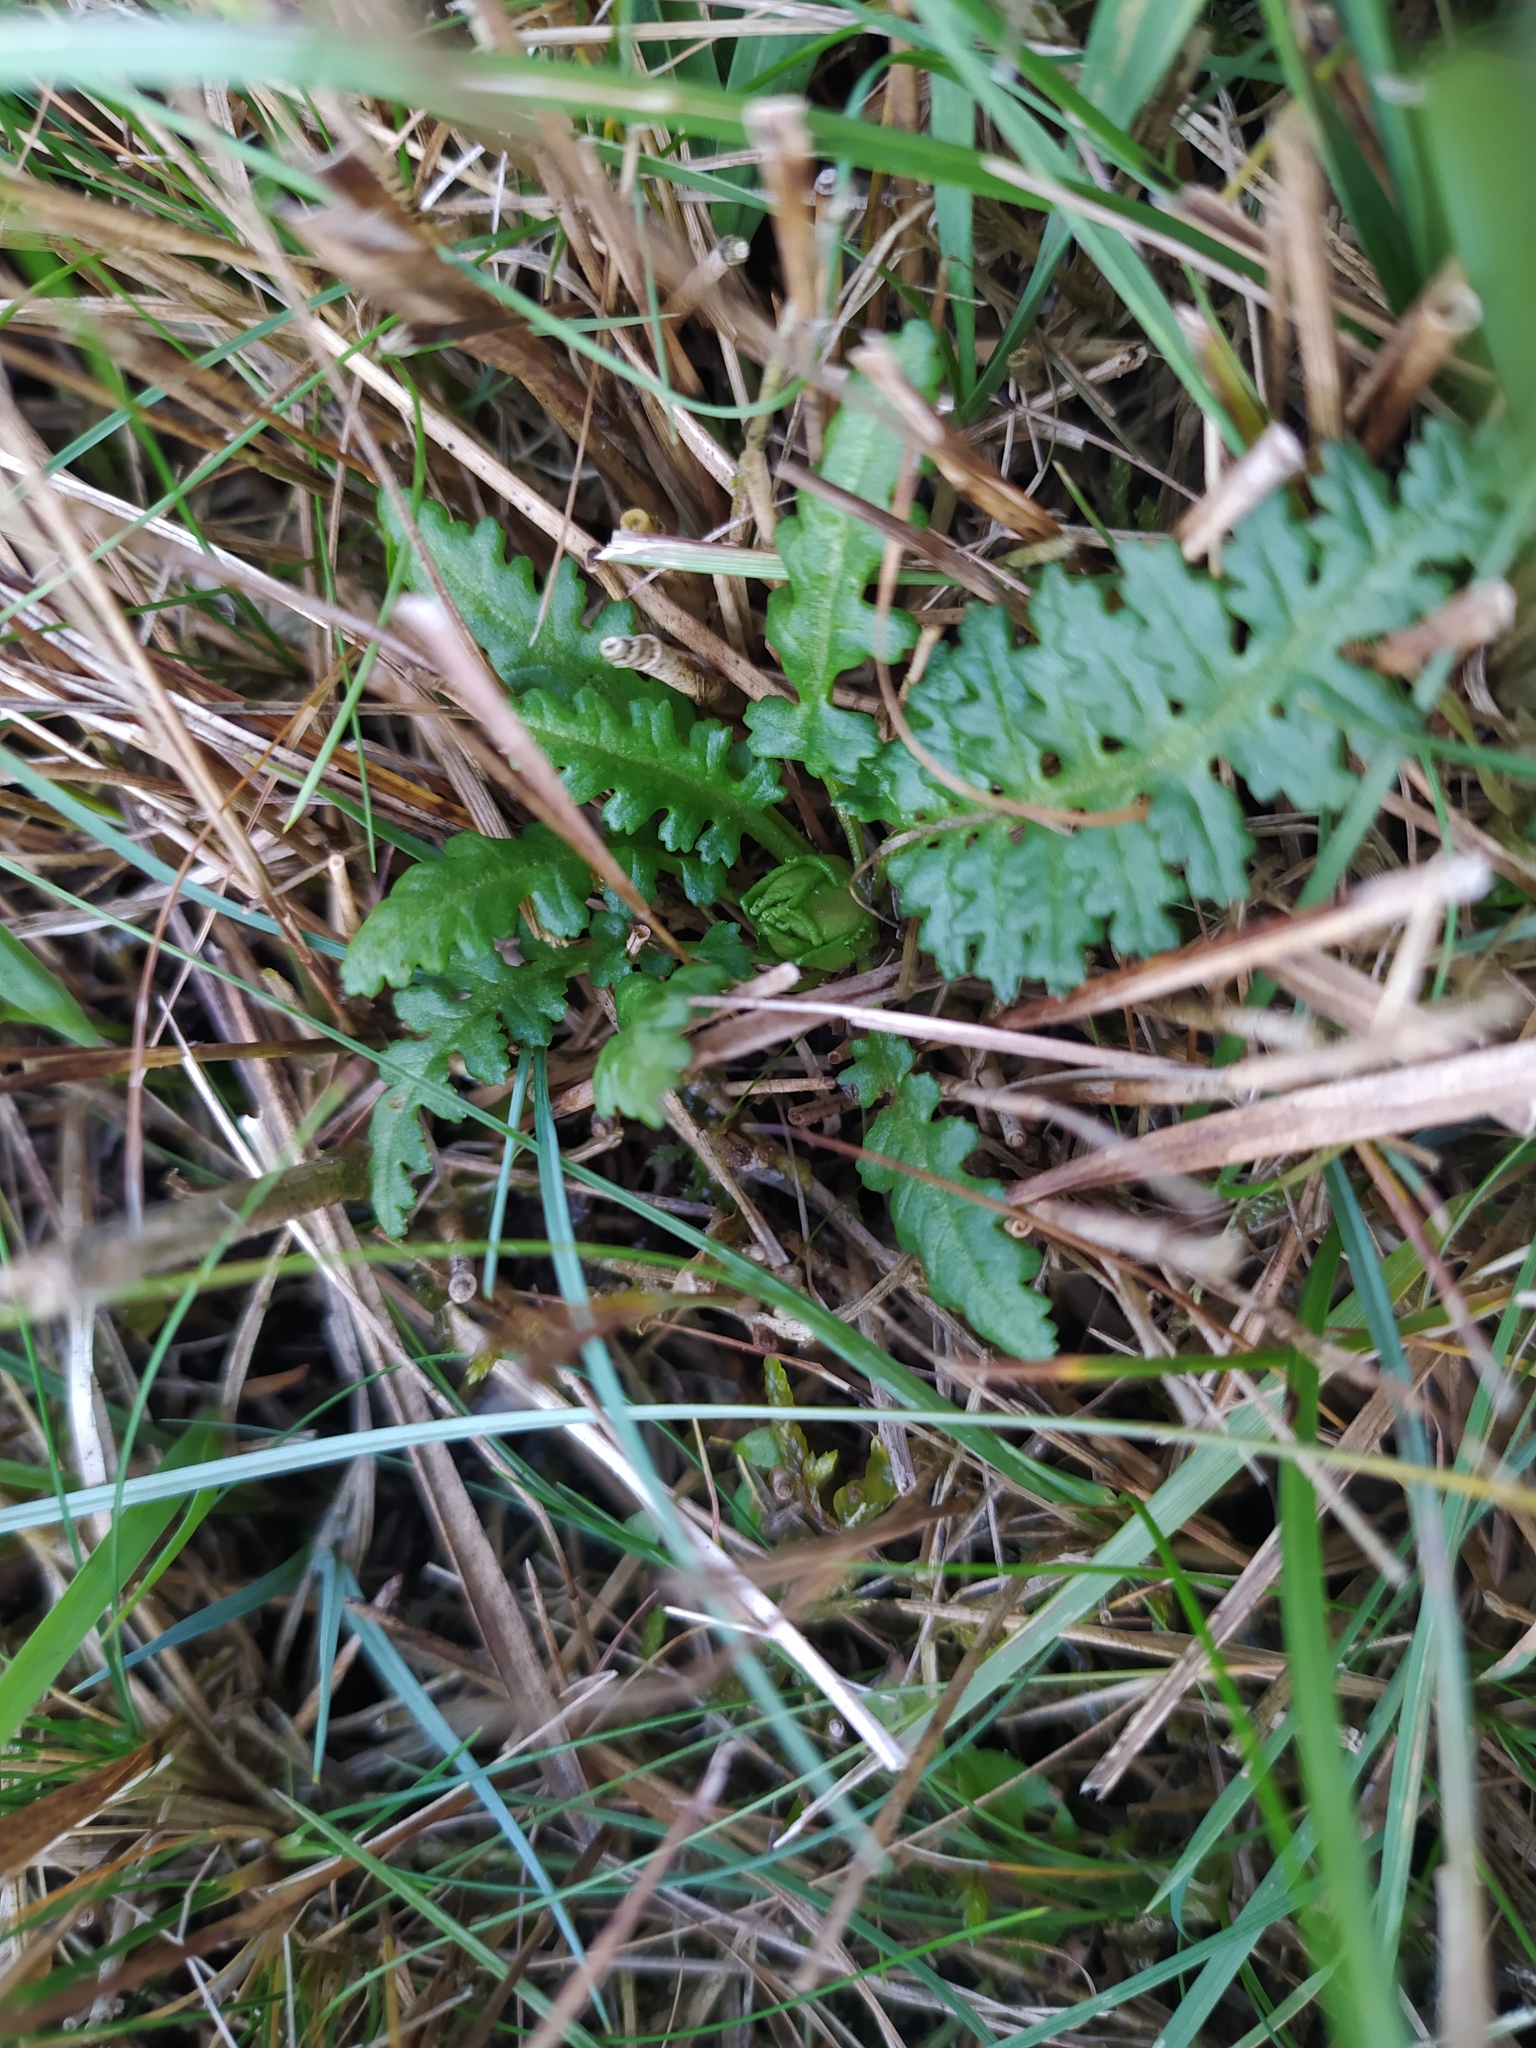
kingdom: Plantae
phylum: Tracheophyta
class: Magnoliopsida
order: Lamiales
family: Orobanchaceae
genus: Pedicularis
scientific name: Pedicularis sylvatica
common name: Lousewort
